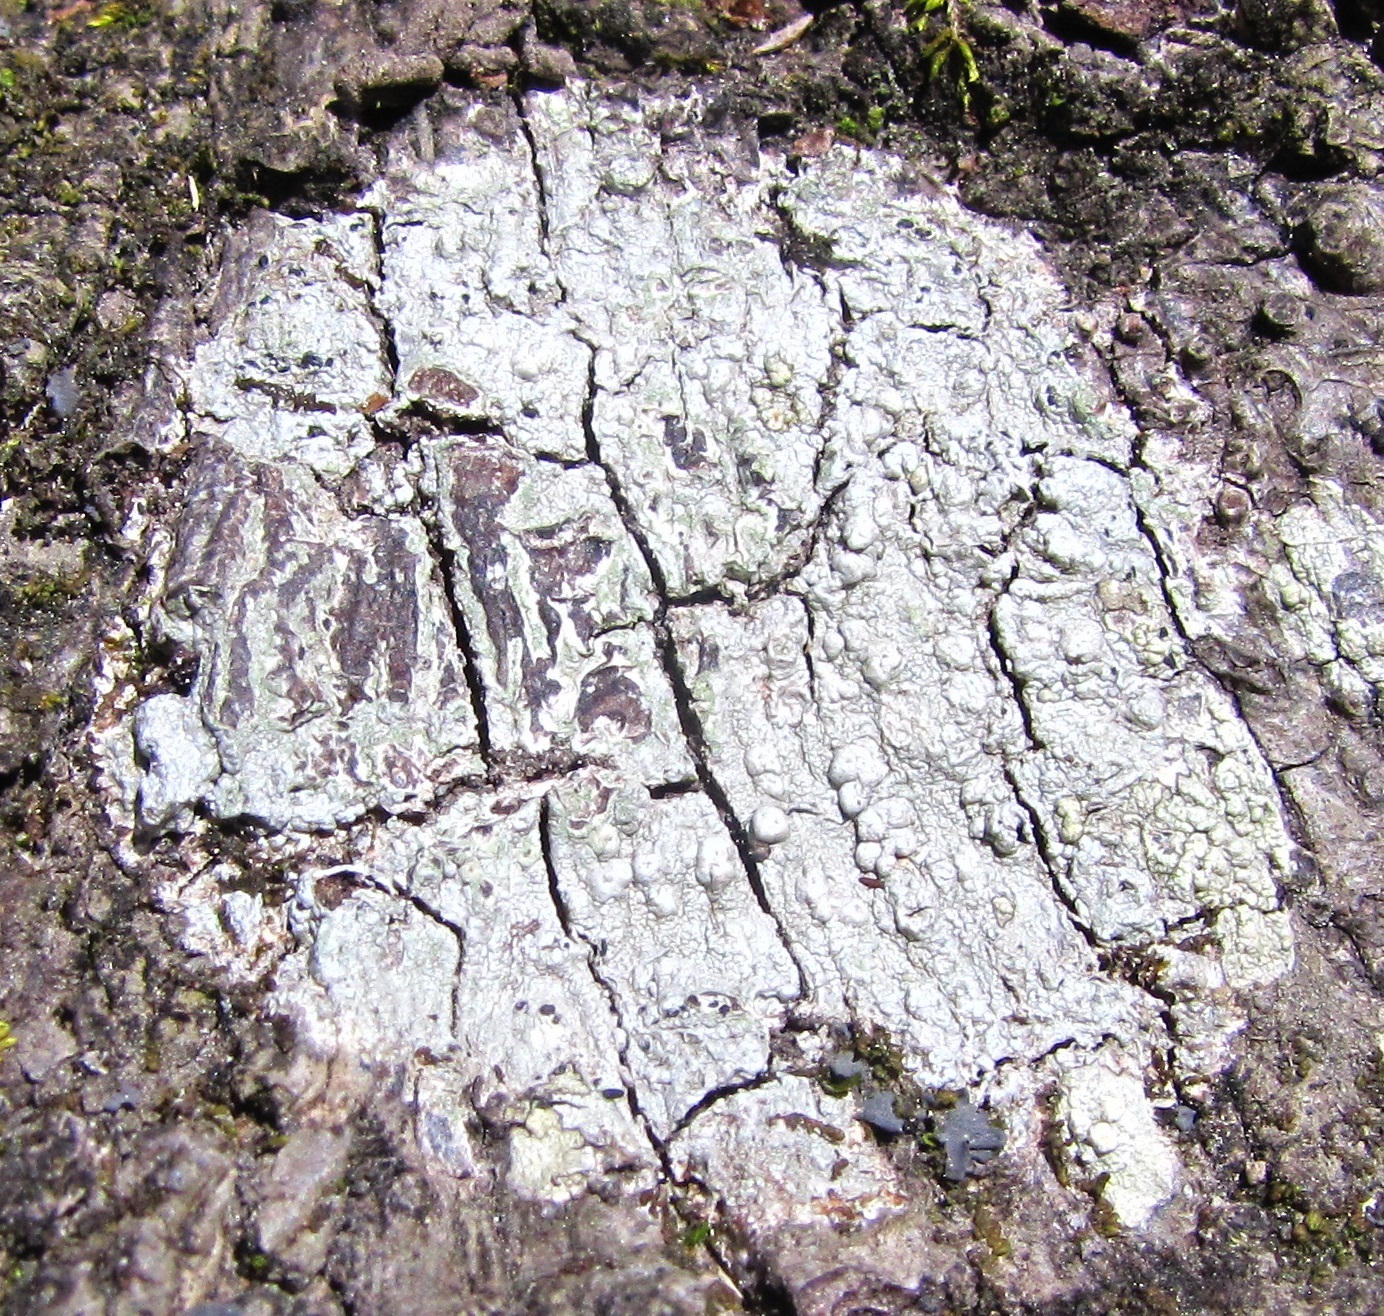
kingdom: Fungi
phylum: Ascomycota
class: Lecanoromycetes
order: Pertusariales
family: Pertusariaceae
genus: Pertusaria
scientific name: Pertusaria paratuberculifera
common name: Spotted wart lichen
